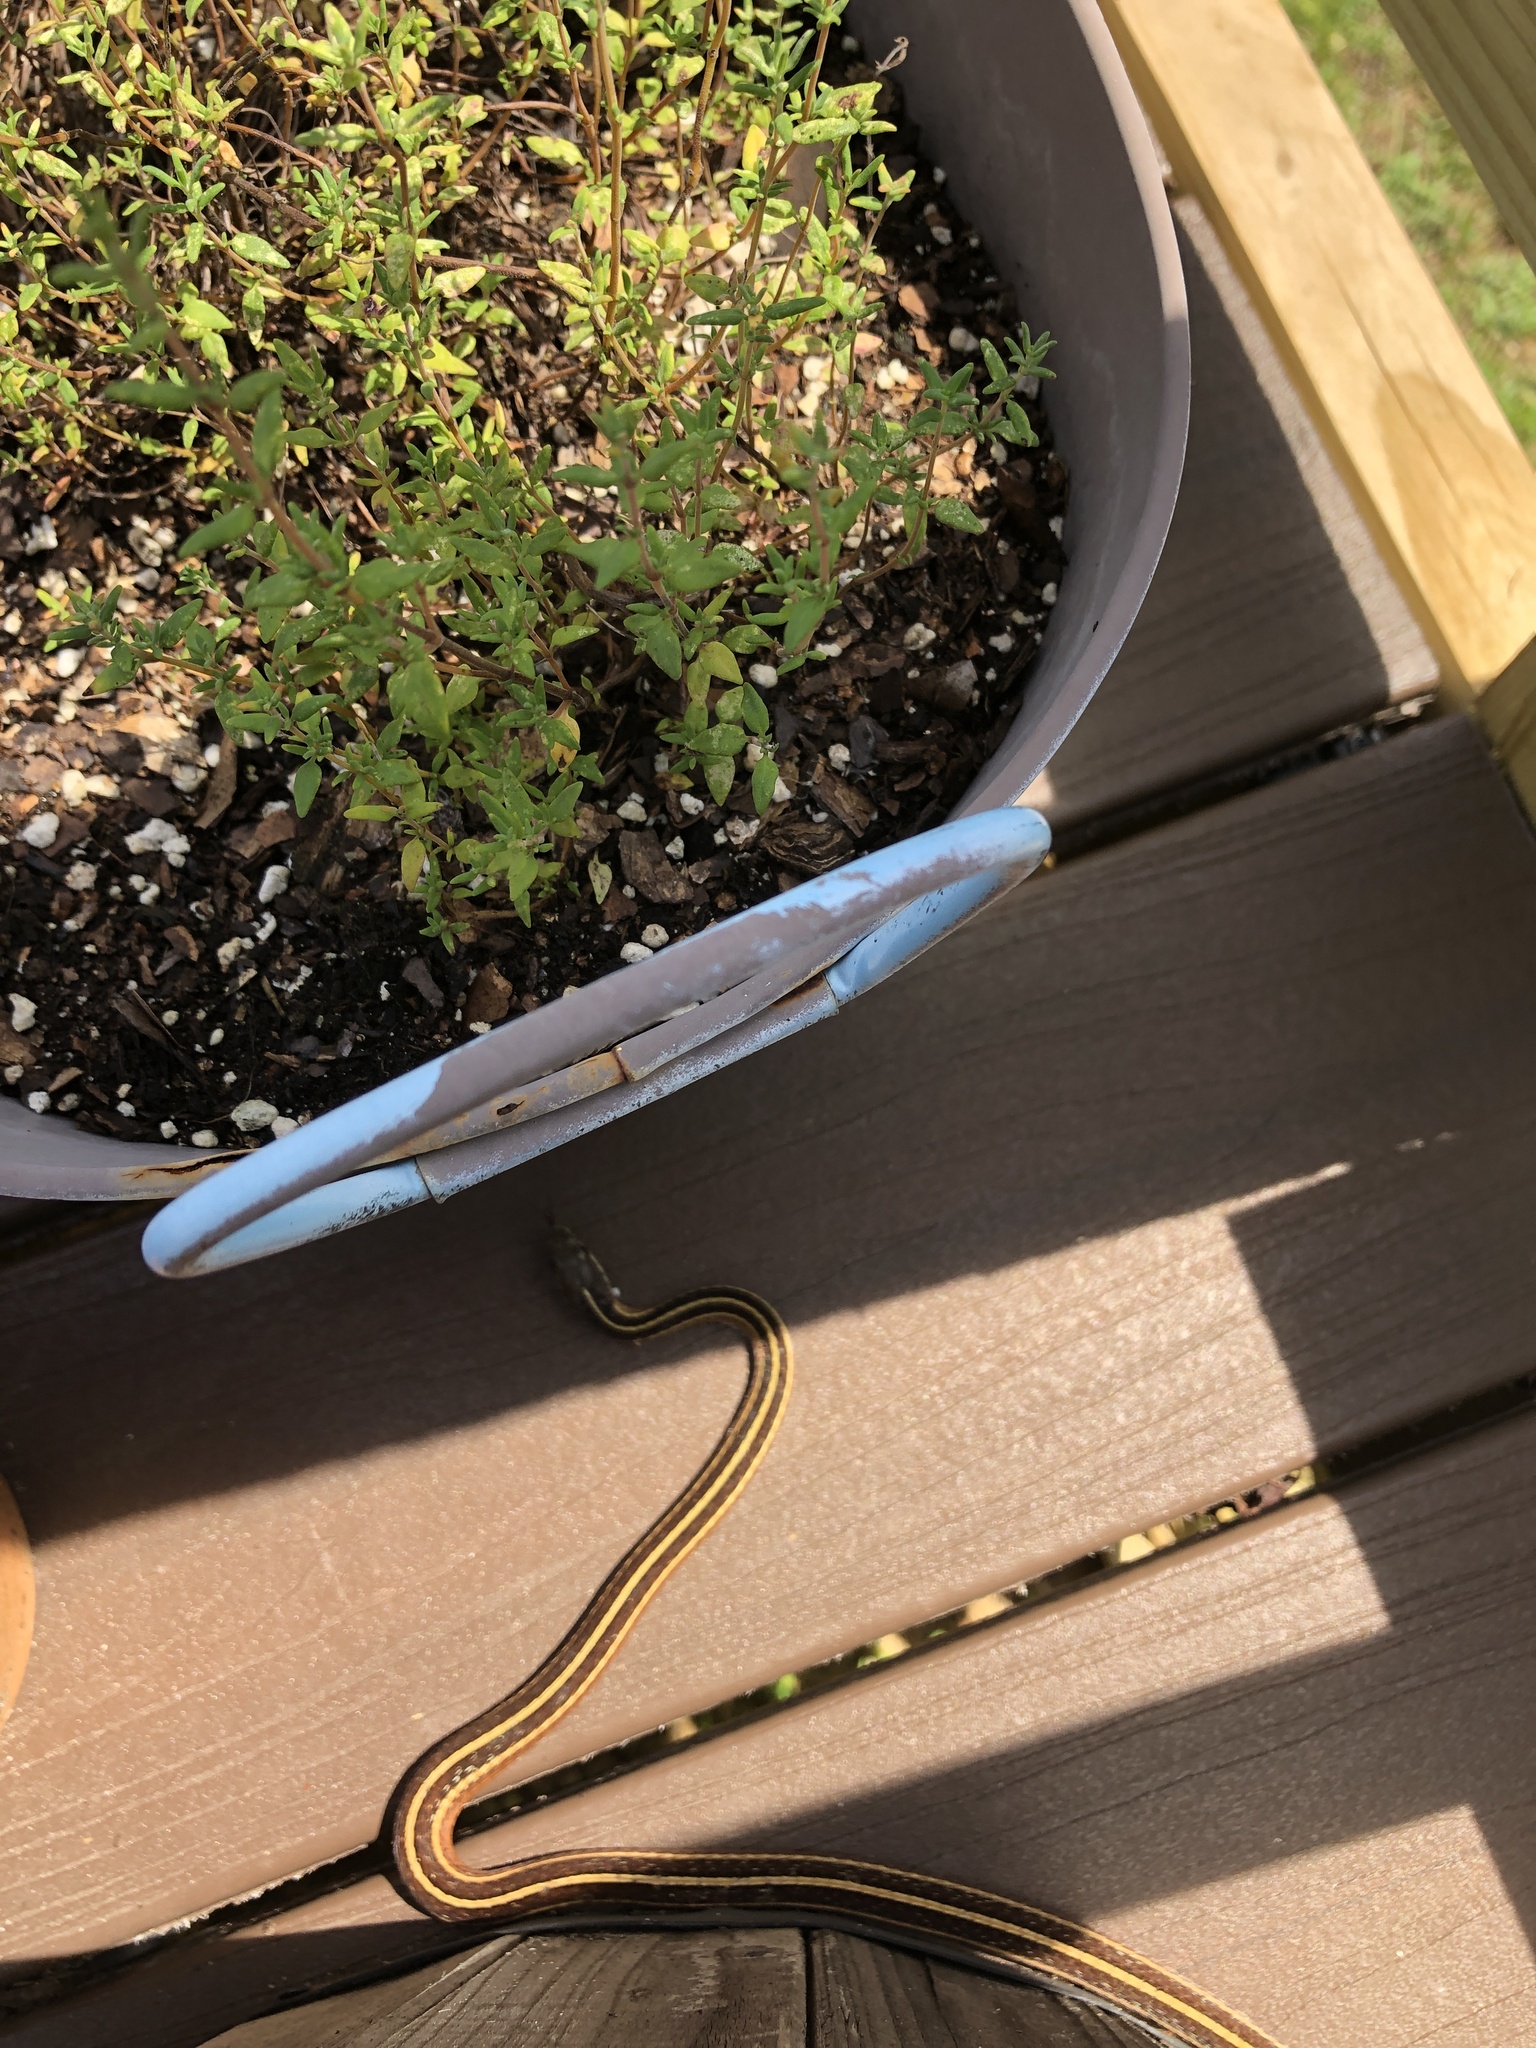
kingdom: Animalia
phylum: Chordata
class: Squamata
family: Colubridae
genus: Thamnophis
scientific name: Thamnophis saurita
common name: Eastern ribbonsnake
